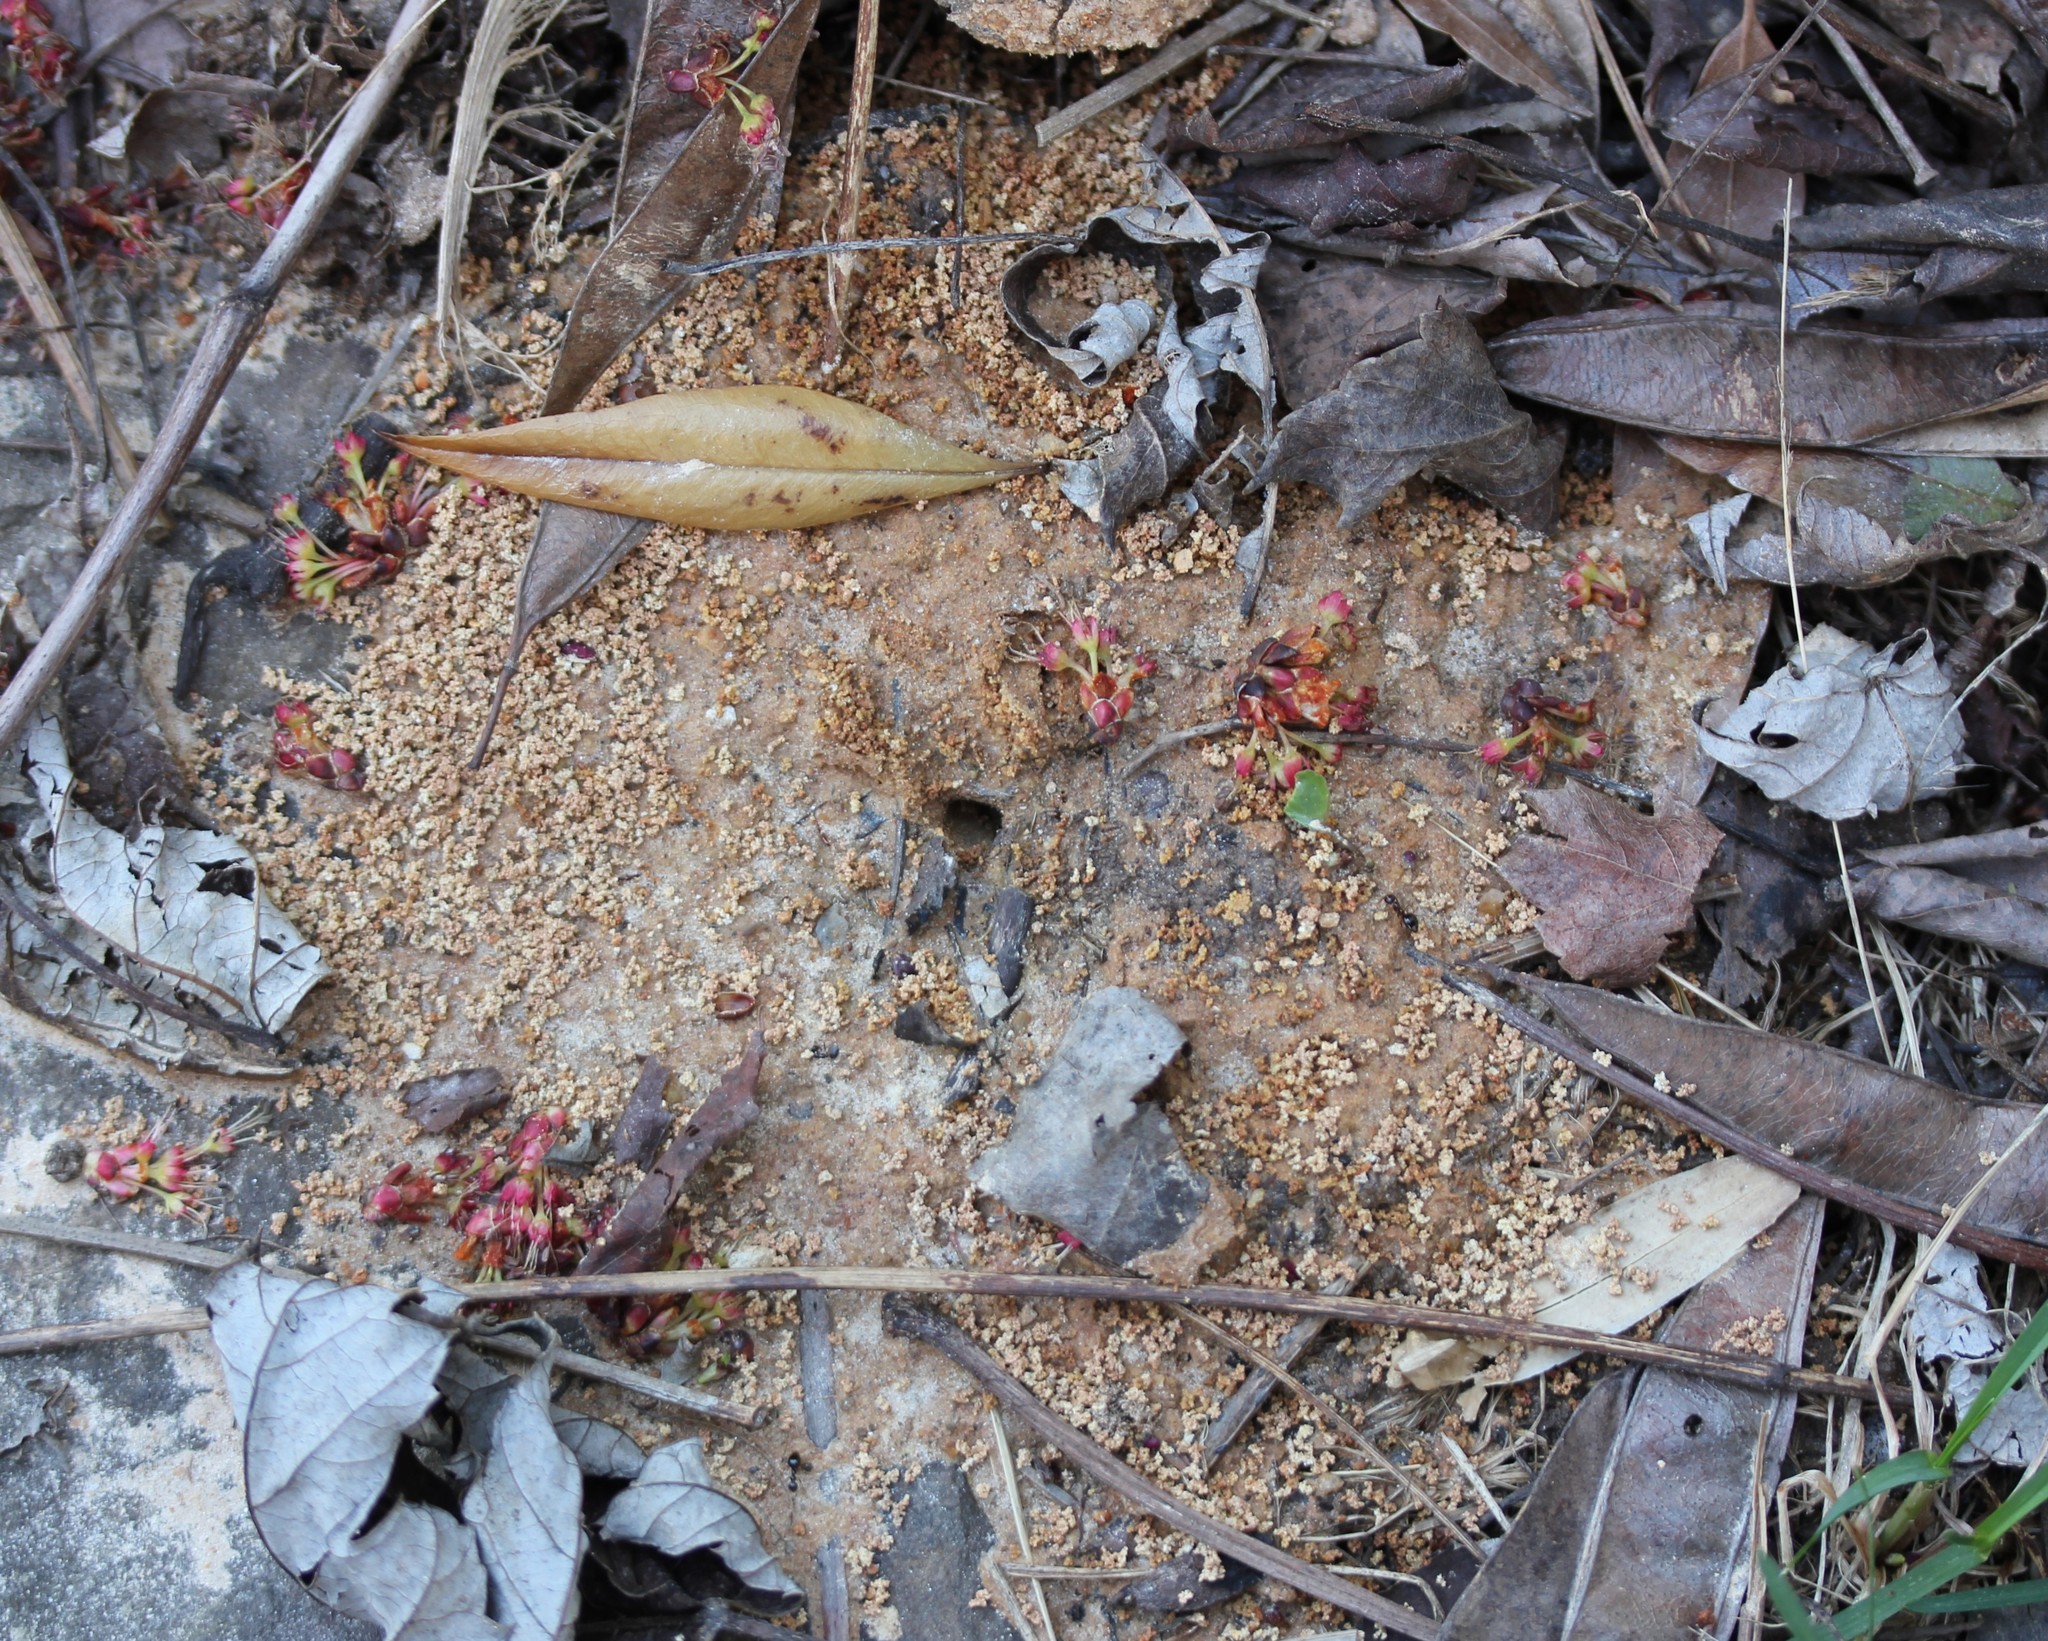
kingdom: Animalia
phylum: Arthropoda
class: Insecta
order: Hymenoptera
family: Formicidae
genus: Prenolepis
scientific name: Prenolepis imparis
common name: Small honey ant
